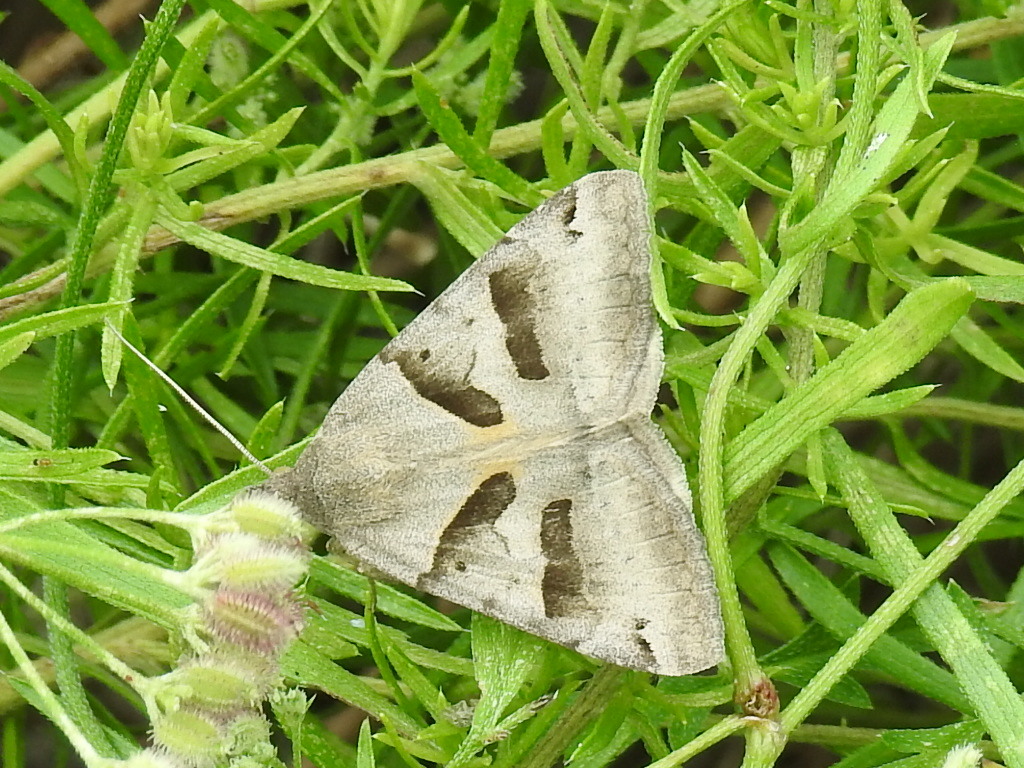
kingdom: Animalia
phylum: Arthropoda
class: Insecta
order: Lepidoptera
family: Erebidae
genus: Caenurgina
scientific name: Caenurgina erechtea
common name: Forage looper moth
